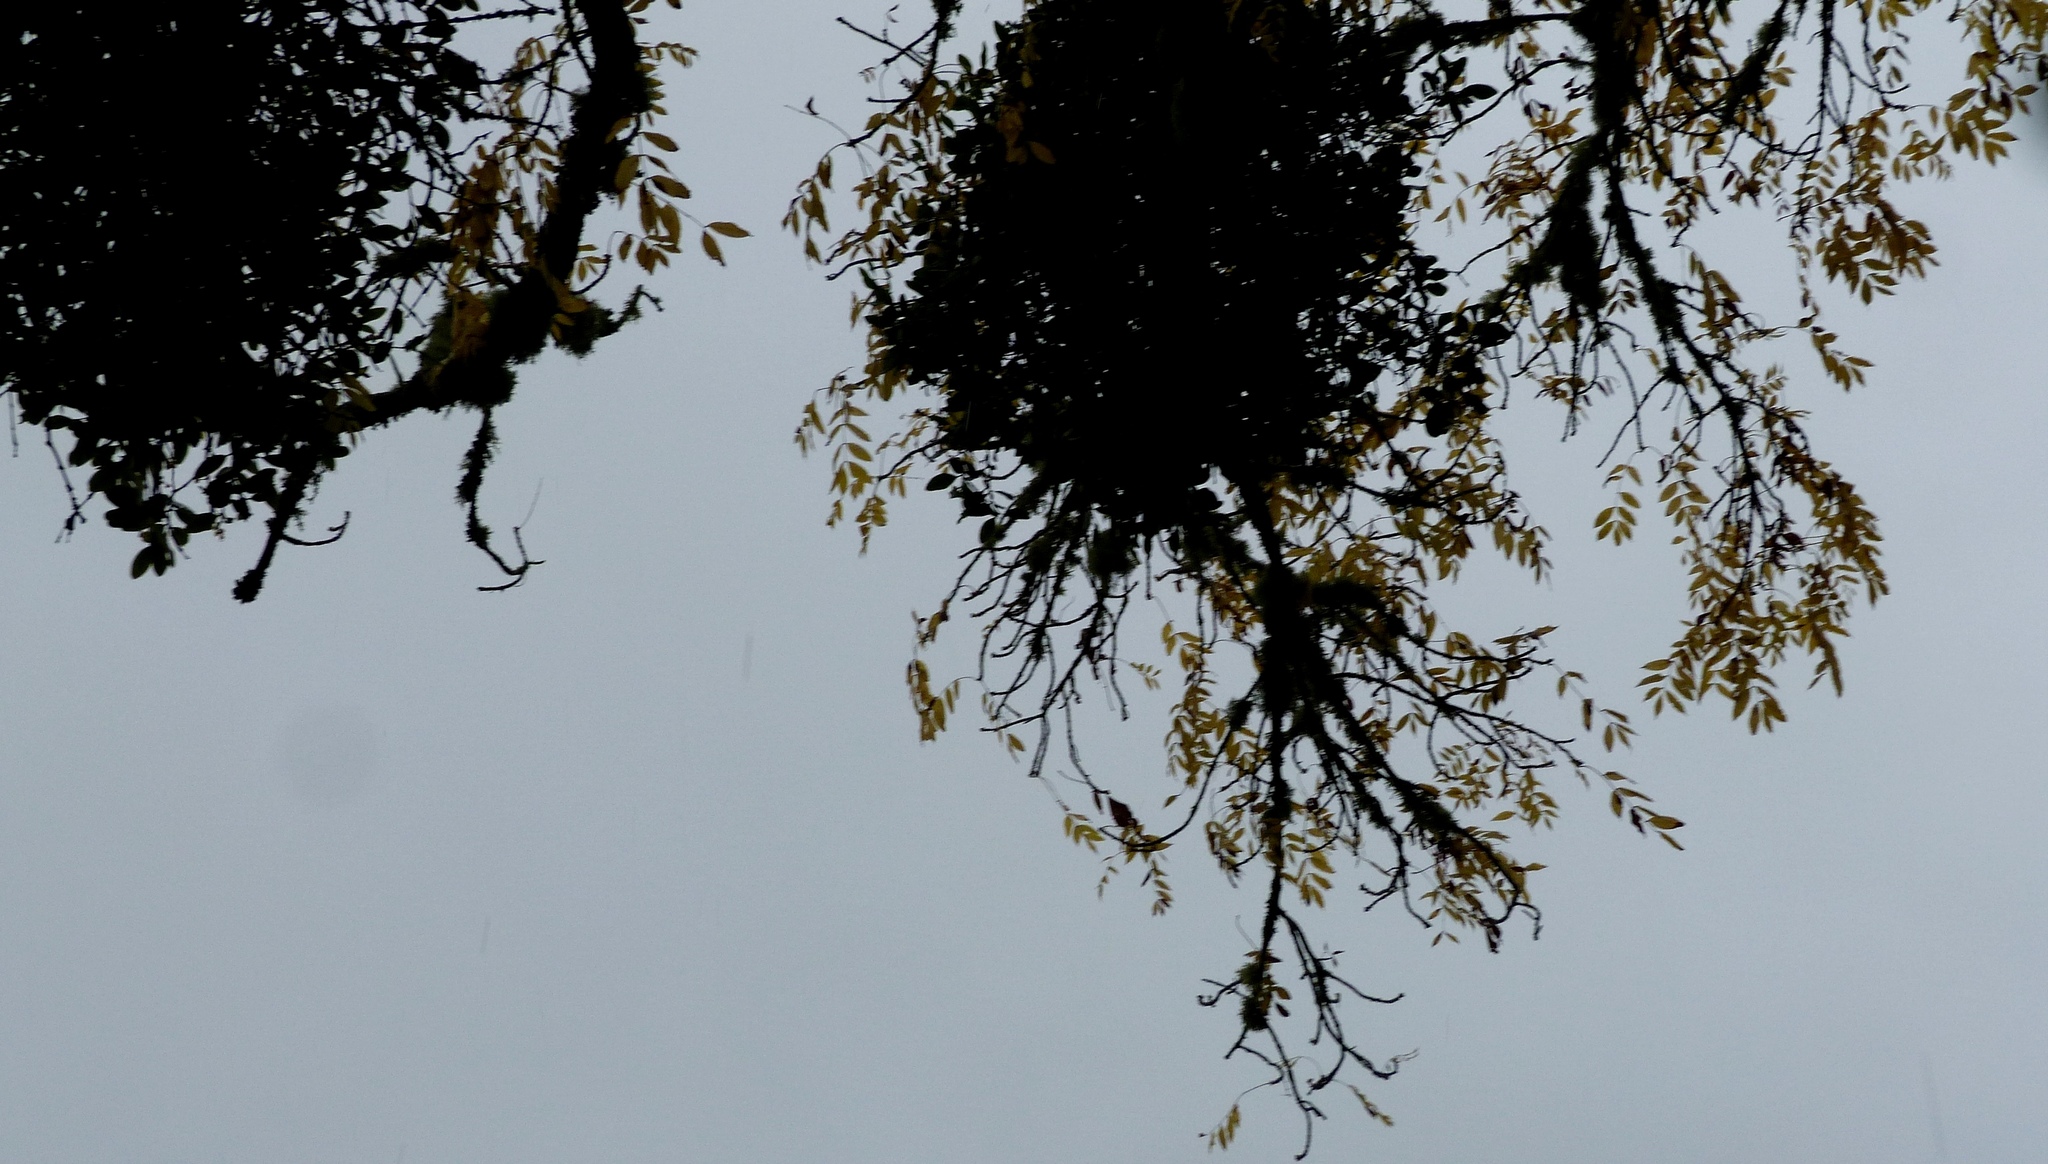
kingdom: Plantae
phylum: Tracheophyta
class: Magnoliopsida
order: Santalales
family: Loranthaceae
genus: Ileostylus
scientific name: Ileostylus micranthus
